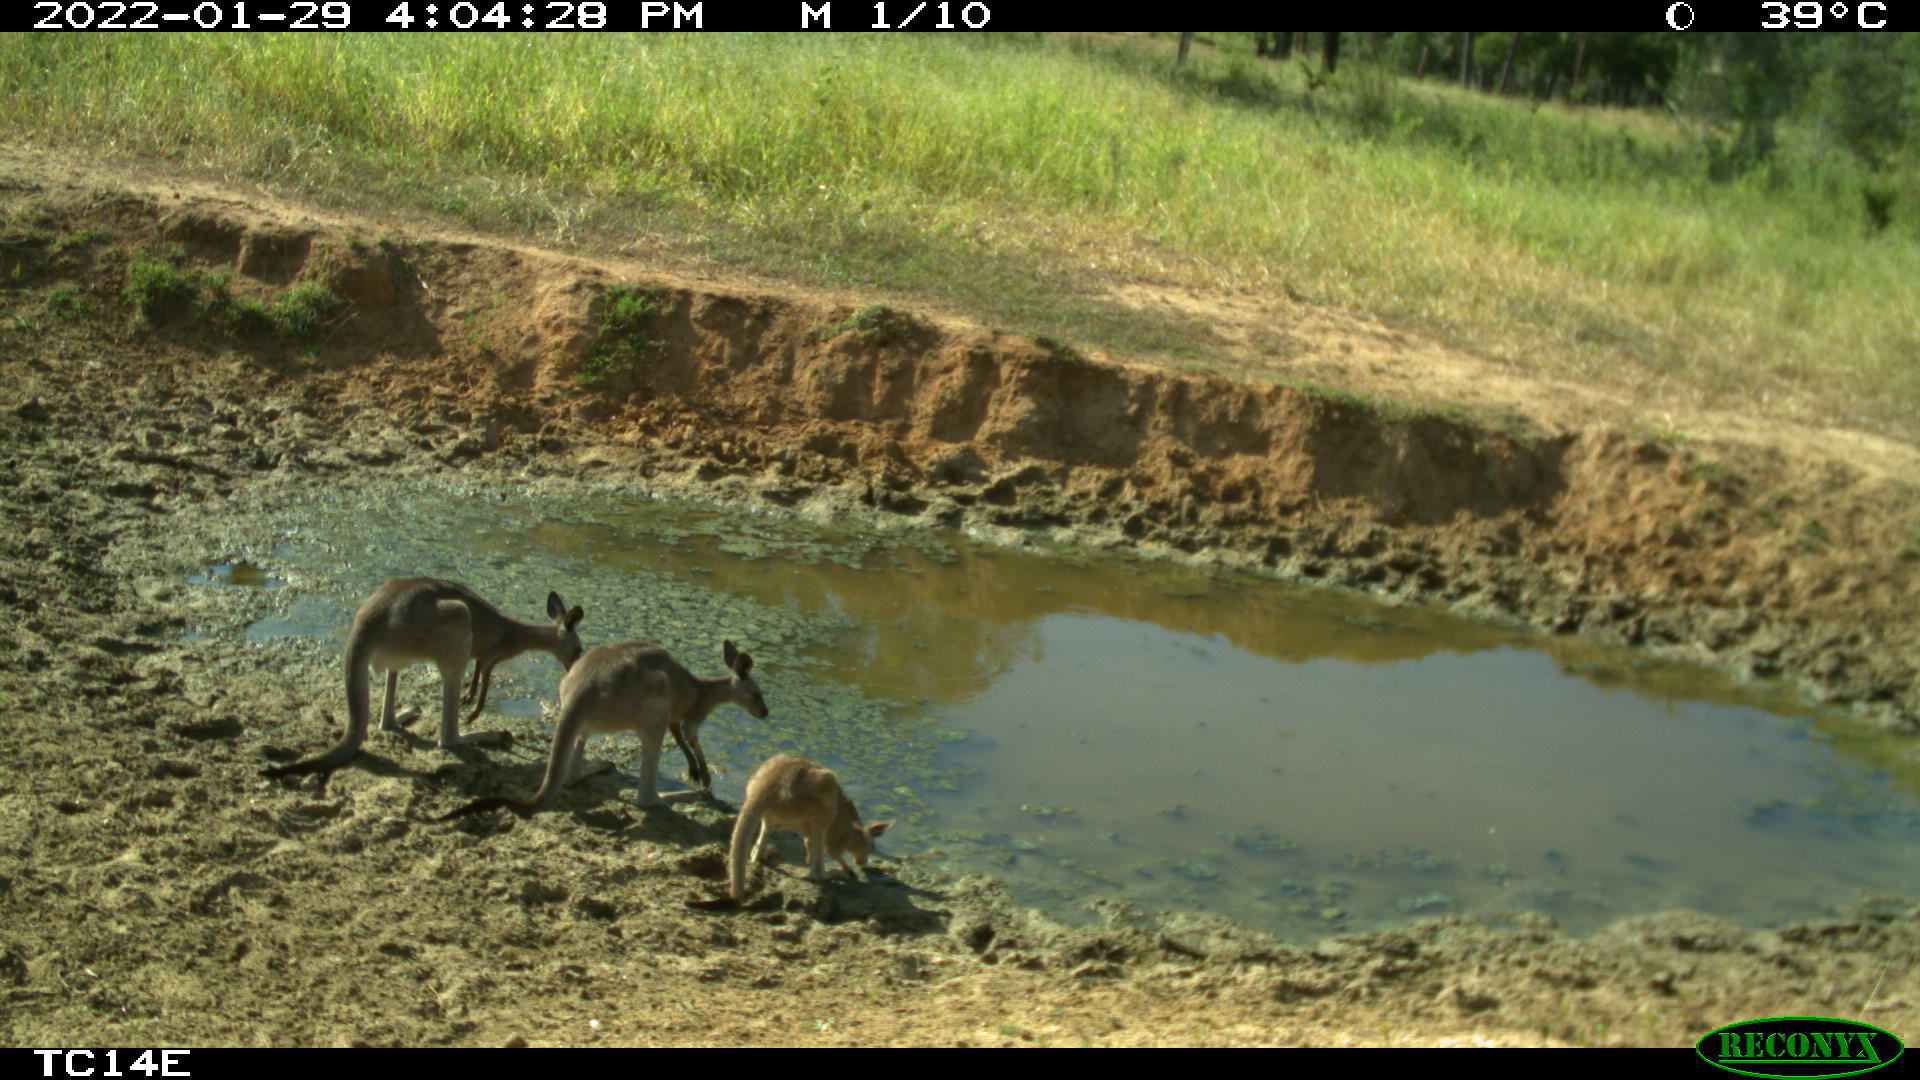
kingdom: Animalia
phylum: Chordata
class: Mammalia
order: Diprotodontia
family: Macropodidae
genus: Macropus
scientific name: Macropus giganteus
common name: Eastern grey kangaroo
